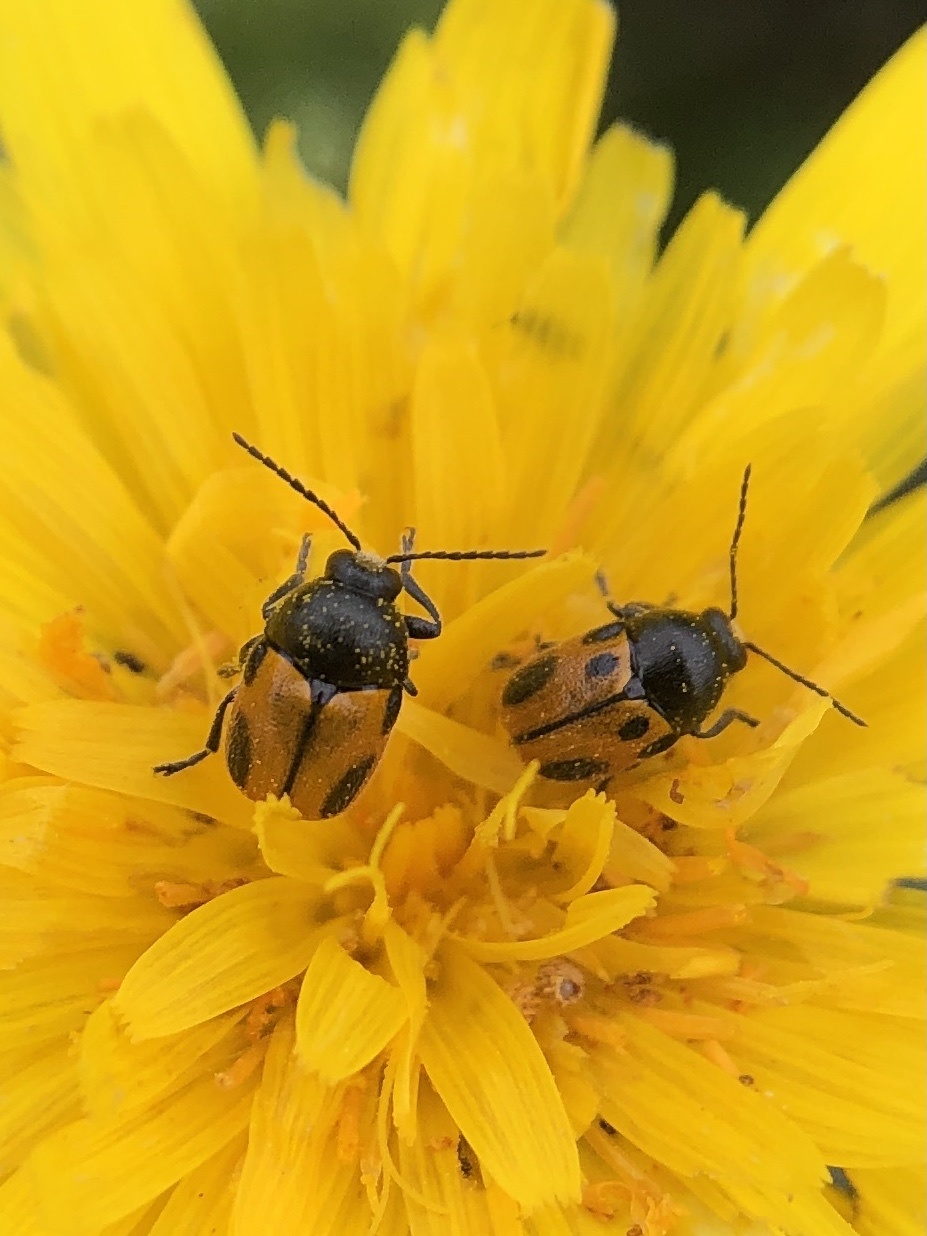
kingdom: Animalia
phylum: Arthropoda
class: Insecta
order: Coleoptera
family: Chrysomelidae
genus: Cryptocephalus
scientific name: Cryptocephalus rugicollis
